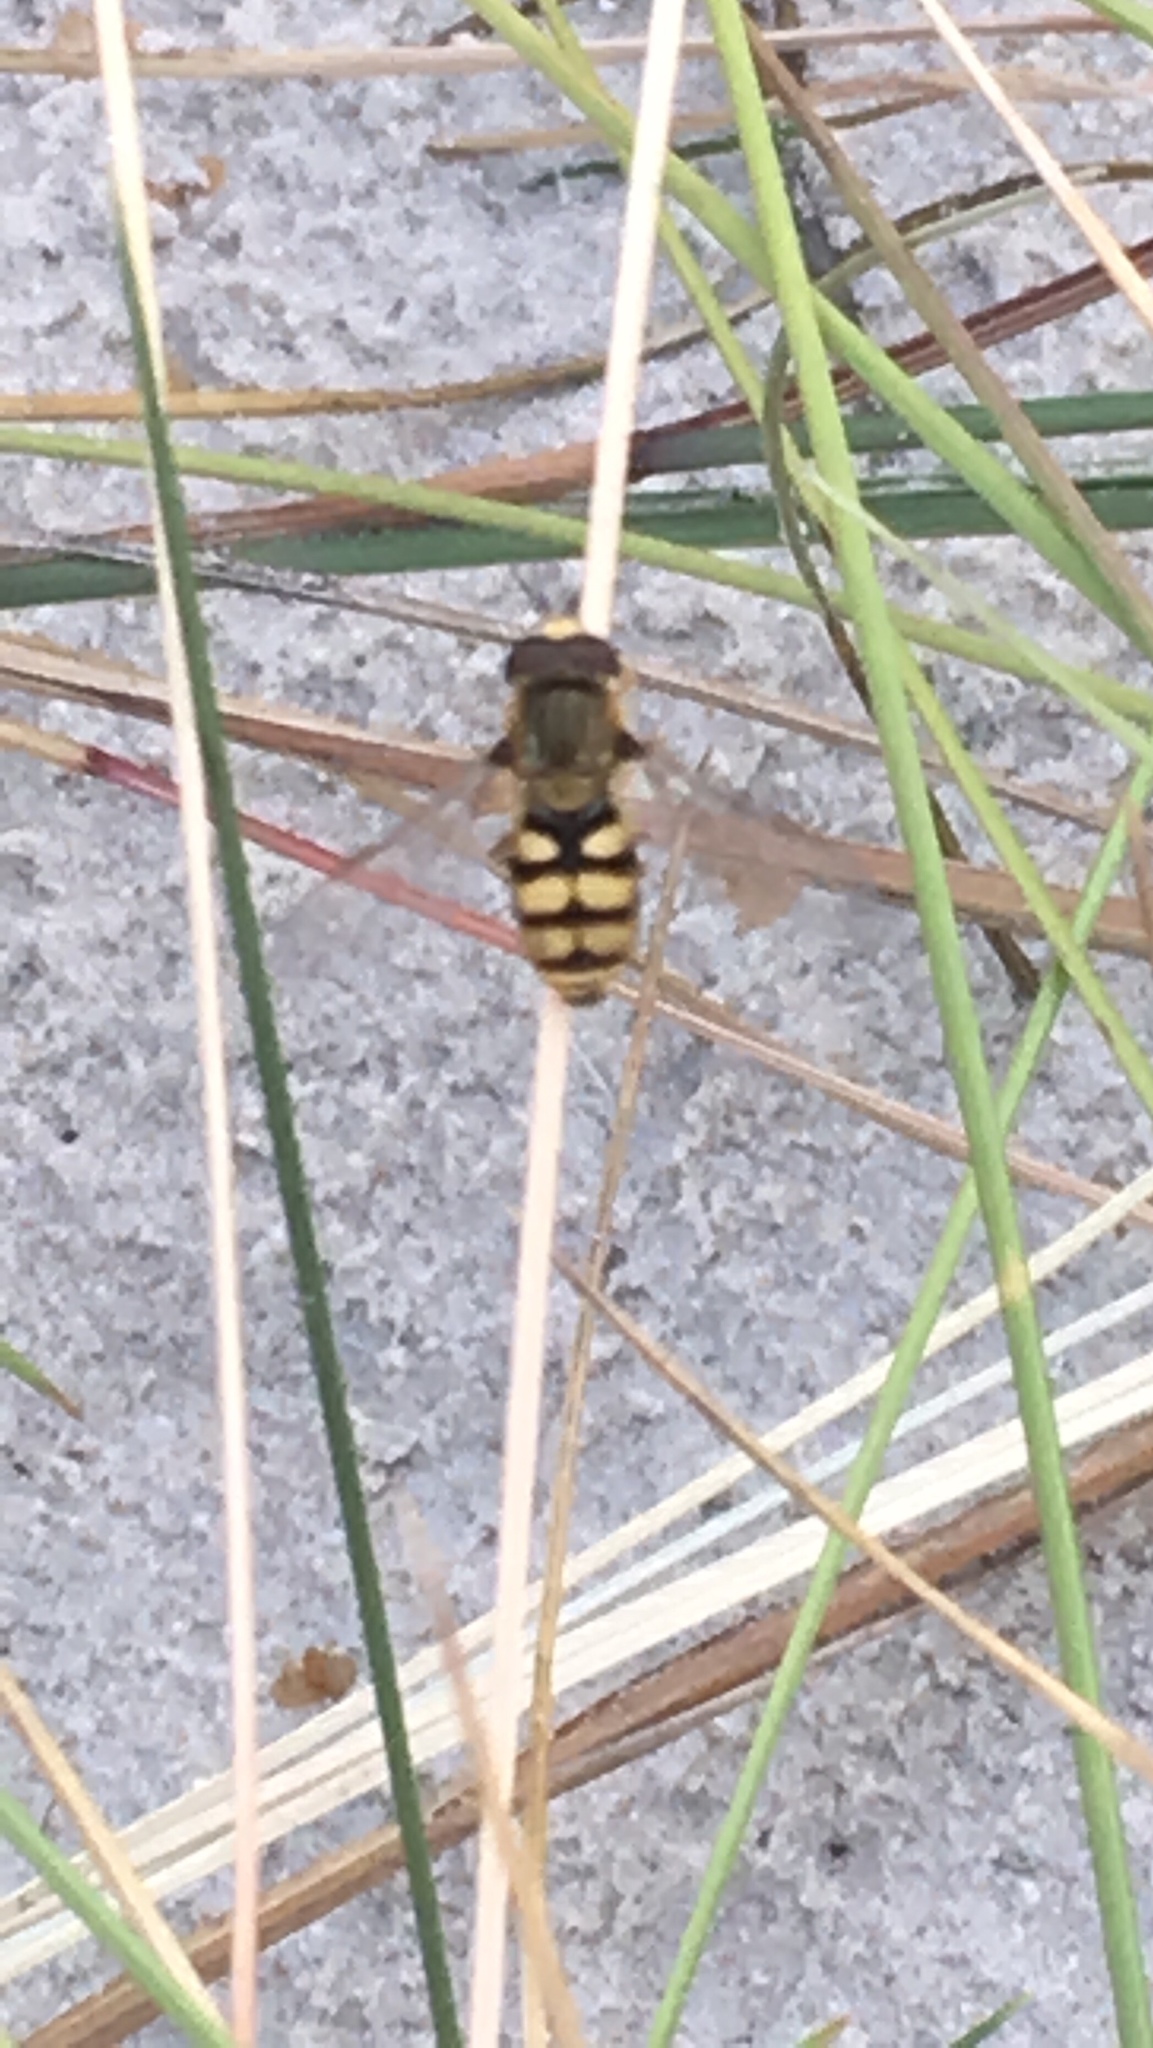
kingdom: Animalia
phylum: Arthropoda
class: Insecta
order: Diptera
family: Syrphidae
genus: Eupeodes
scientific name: Eupeodes corollae
